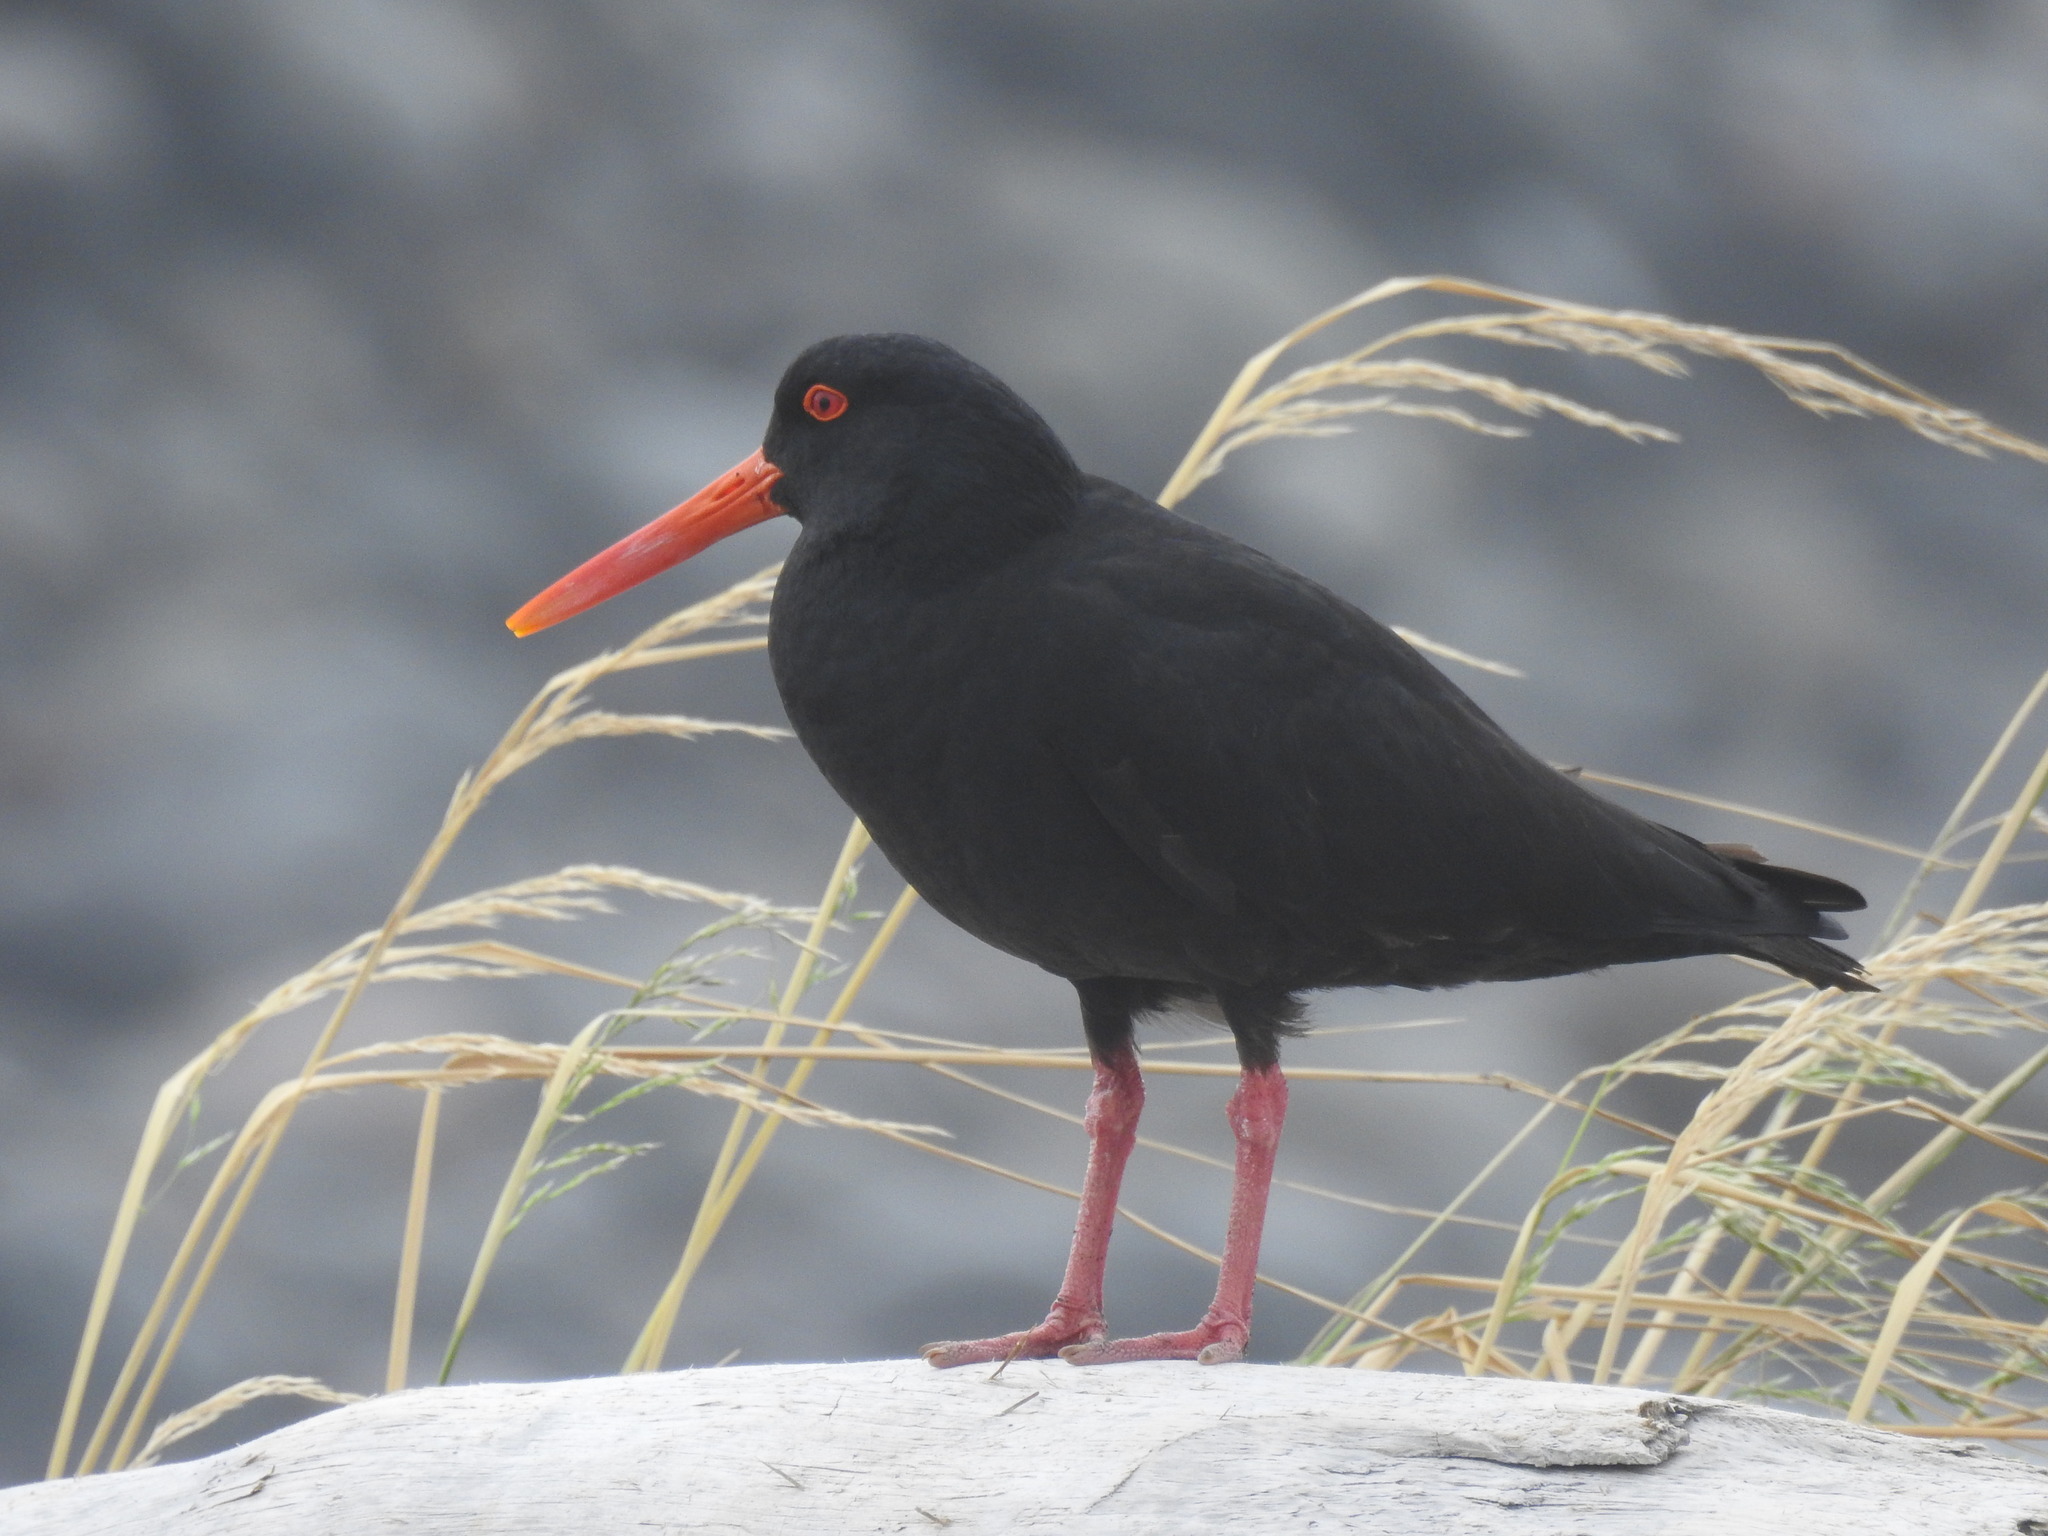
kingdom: Animalia
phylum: Chordata
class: Aves
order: Charadriiformes
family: Haematopodidae
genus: Haematopus
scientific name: Haematopus unicolor
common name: Variable oystercatcher
